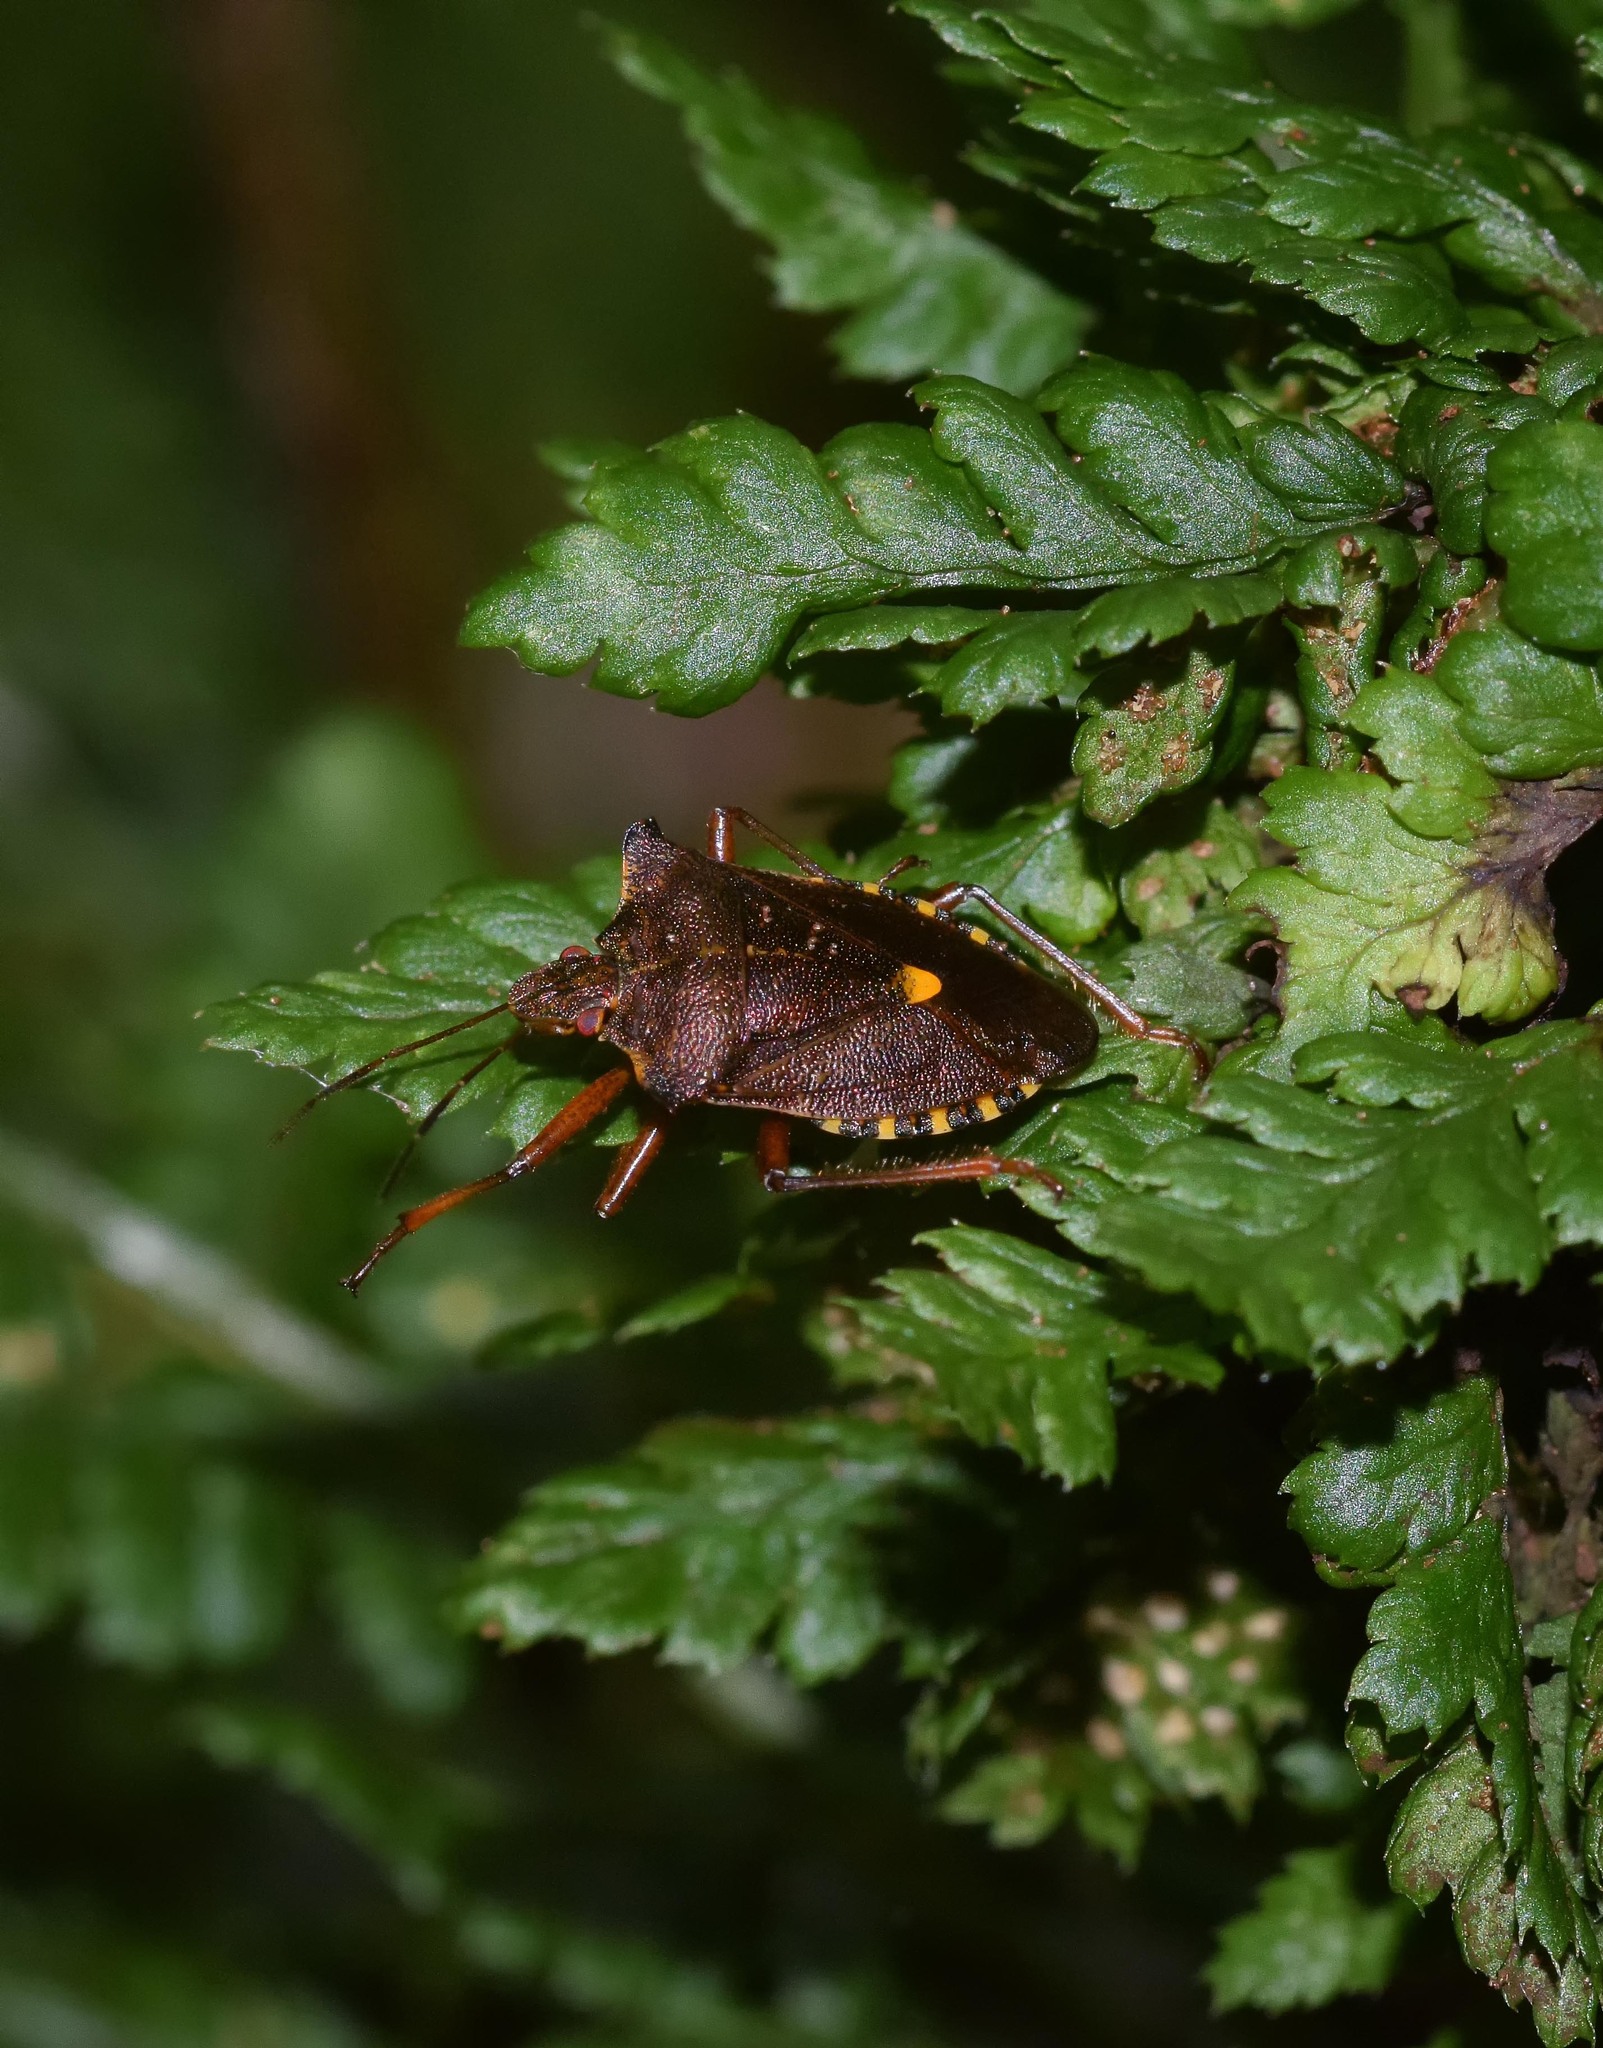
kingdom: Animalia
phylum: Arthropoda
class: Insecta
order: Hemiptera
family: Pentatomidae
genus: Pentatoma
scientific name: Pentatoma rufipes
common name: Forest bug
